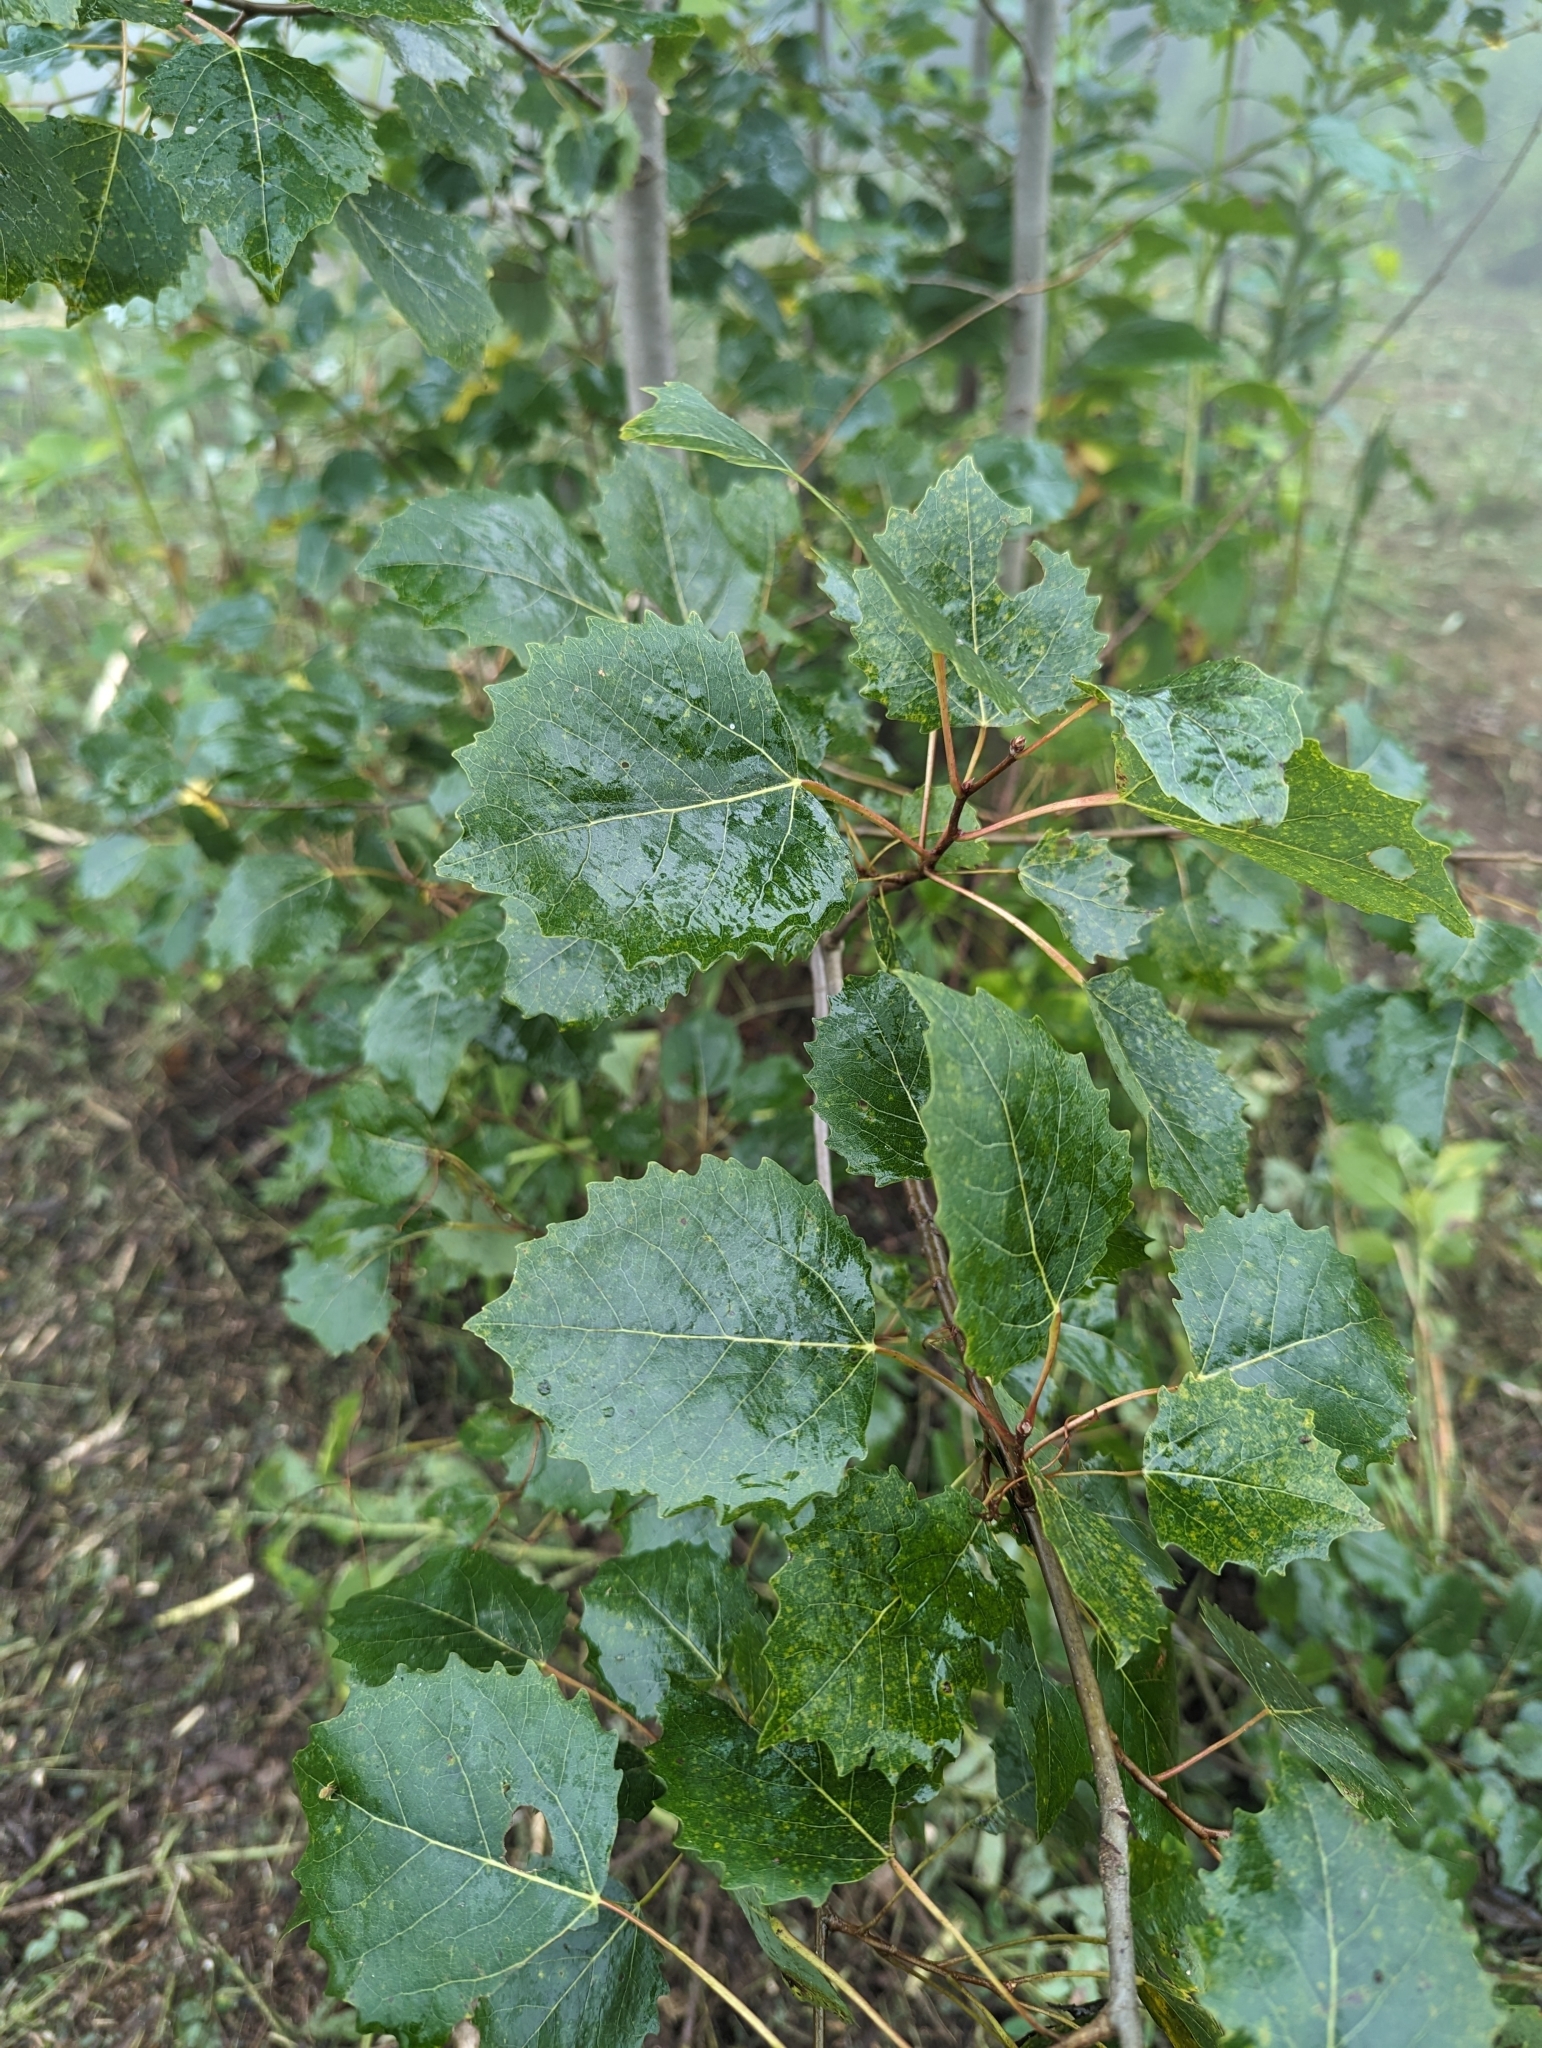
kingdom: Plantae
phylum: Tracheophyta
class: Magnoliopsida
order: Malpighiales
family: Salicaceae
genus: Populus
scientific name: Populus grandidentata
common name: Bigtooth aspen
